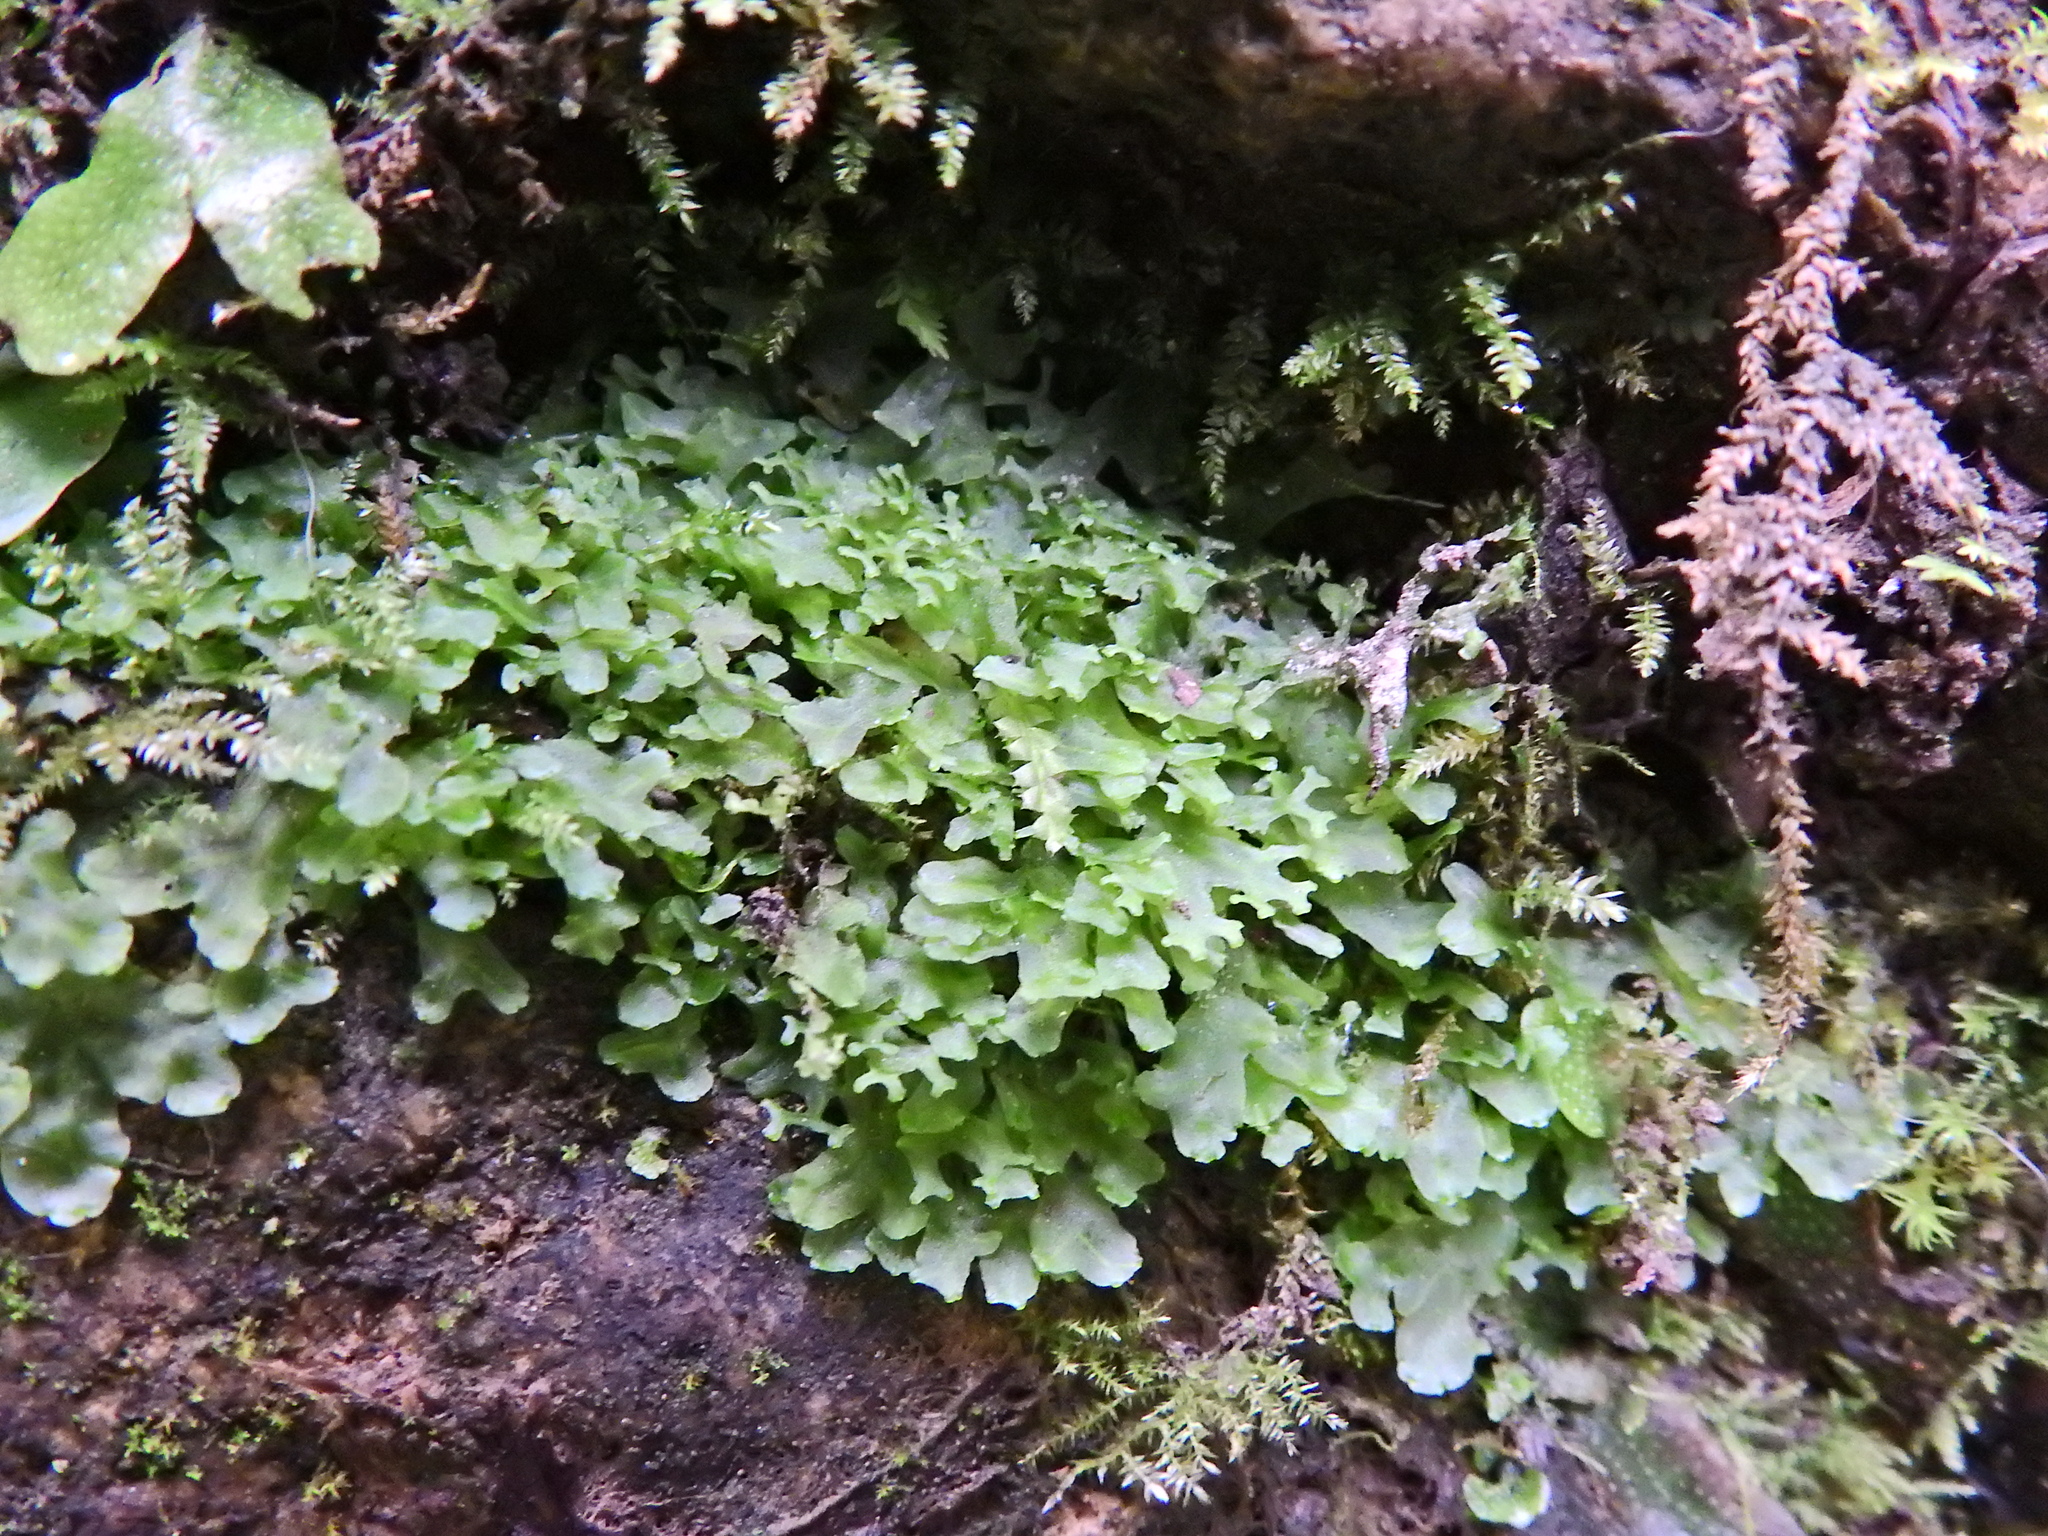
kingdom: Plantae
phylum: Marchantiophyta
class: Jungermanniopsida
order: Pelliales
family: Pelliaceae
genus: Apopellia
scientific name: Apopellia endiviifolia
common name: Endive pellia
